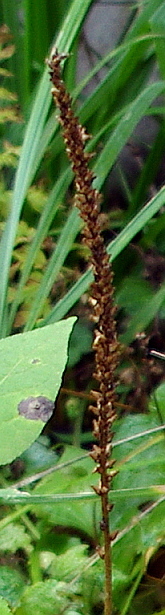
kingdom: Plantae
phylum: Tracheophyta
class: Magnoliopsida
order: Lamiales
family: Plantaginaceae
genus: Plantago
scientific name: Plantago major
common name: Common plantain
